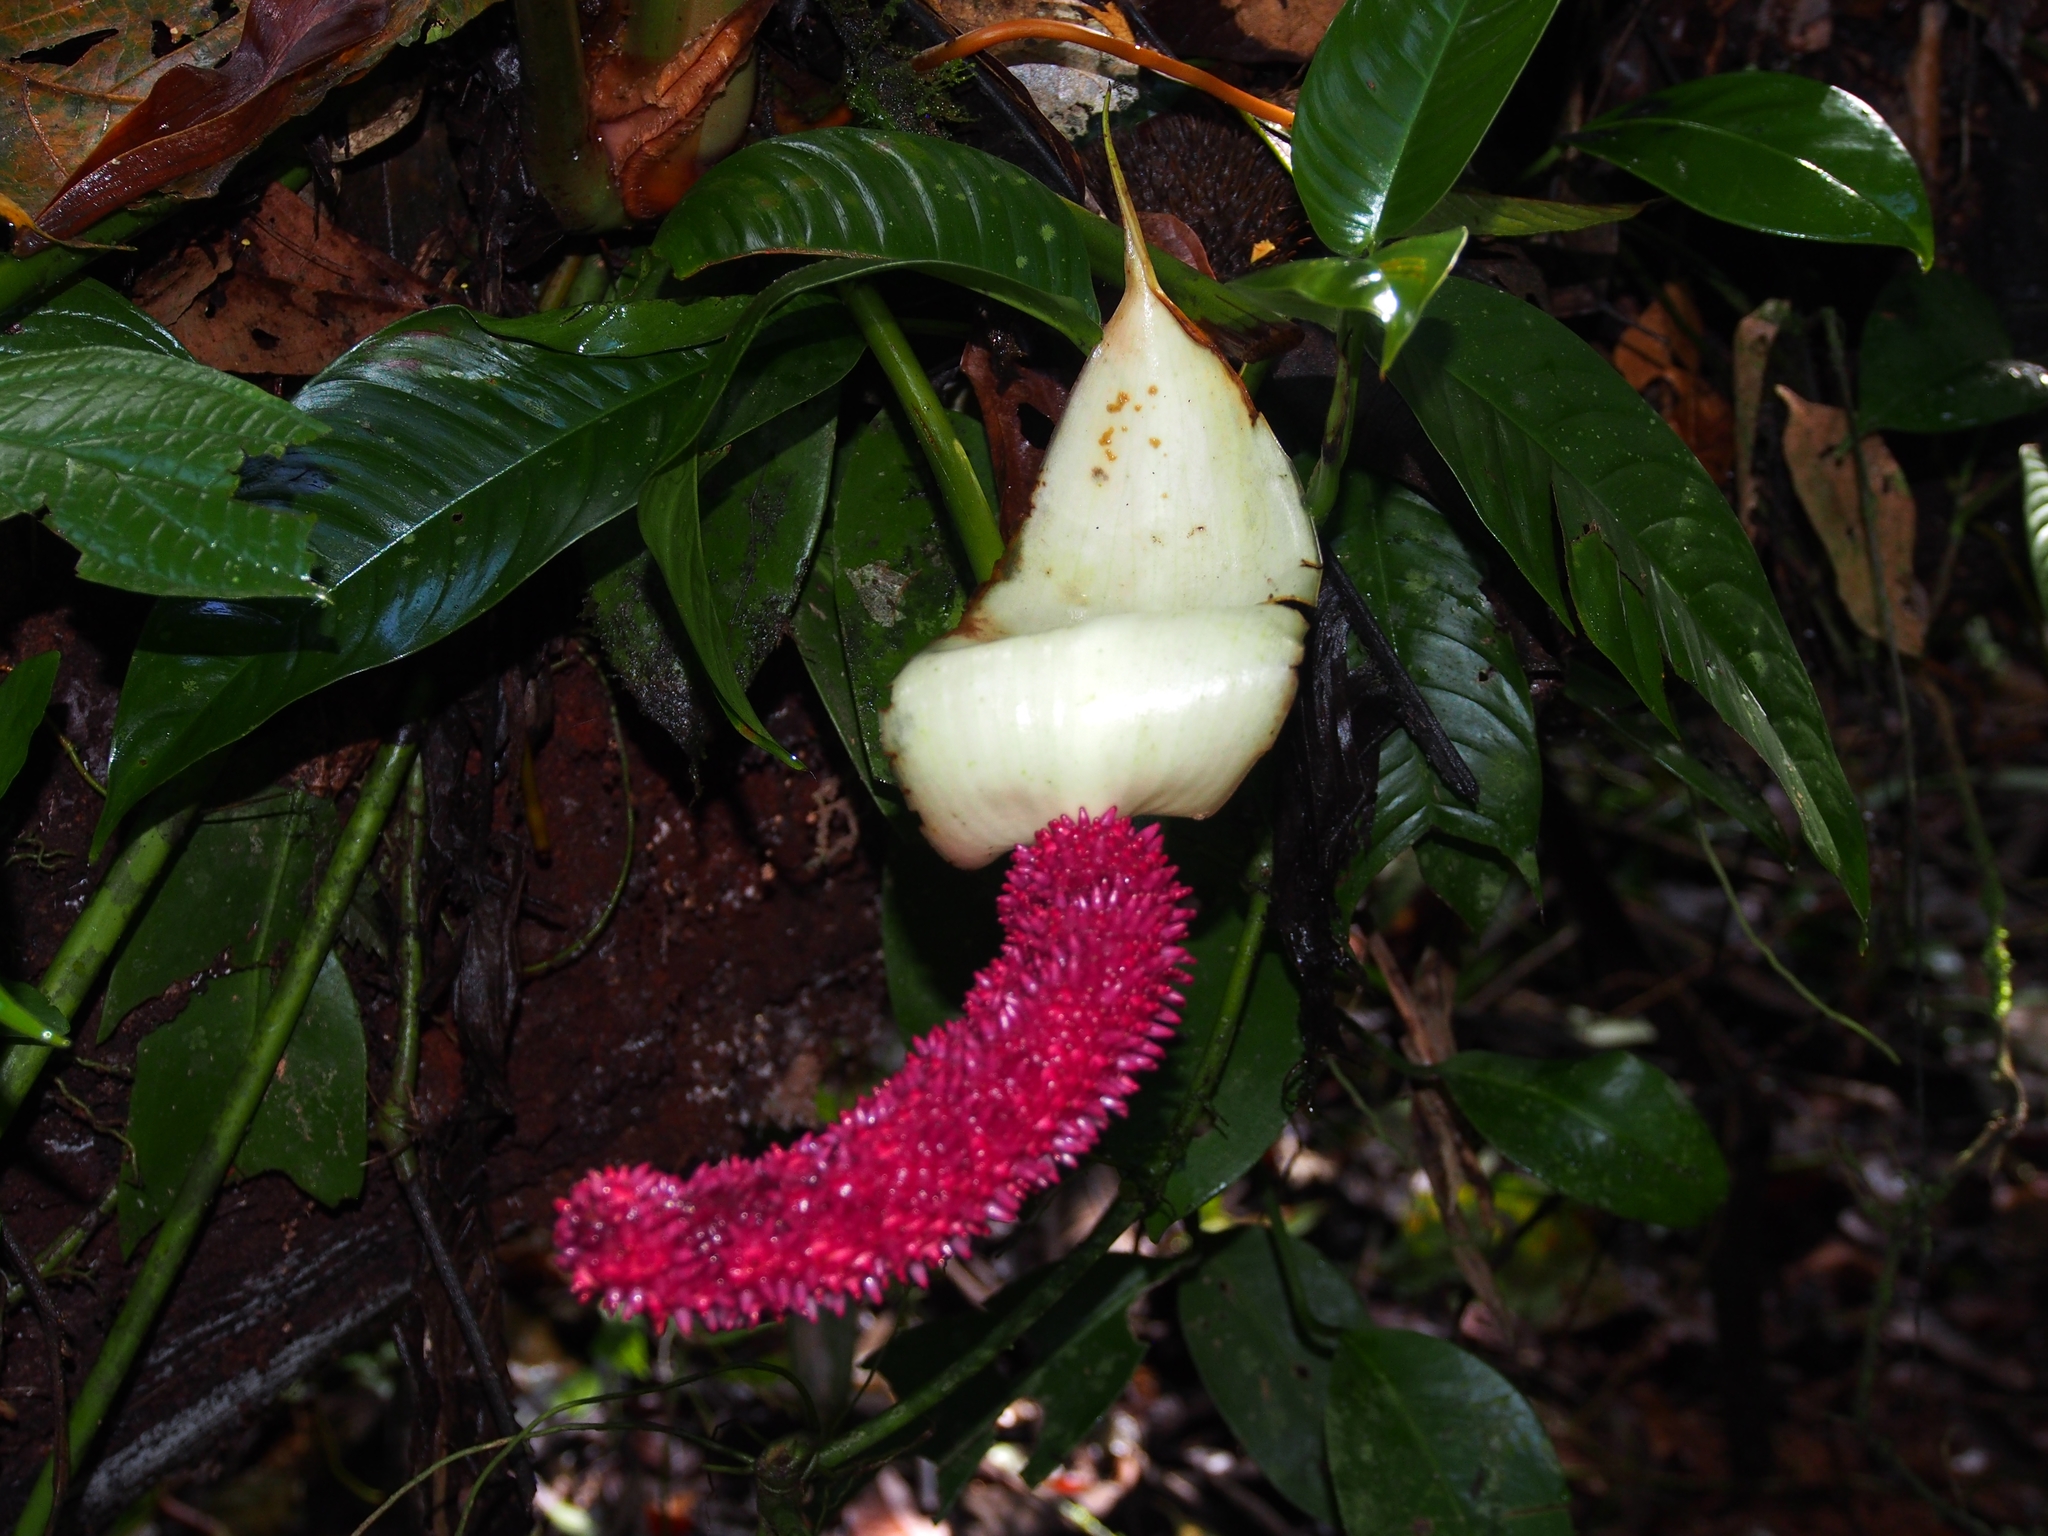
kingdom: Plantae
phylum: Tracheophyta
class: Liliopsida
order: Alismatales
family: Araceae
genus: Anthurium
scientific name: Anthurium formosum
